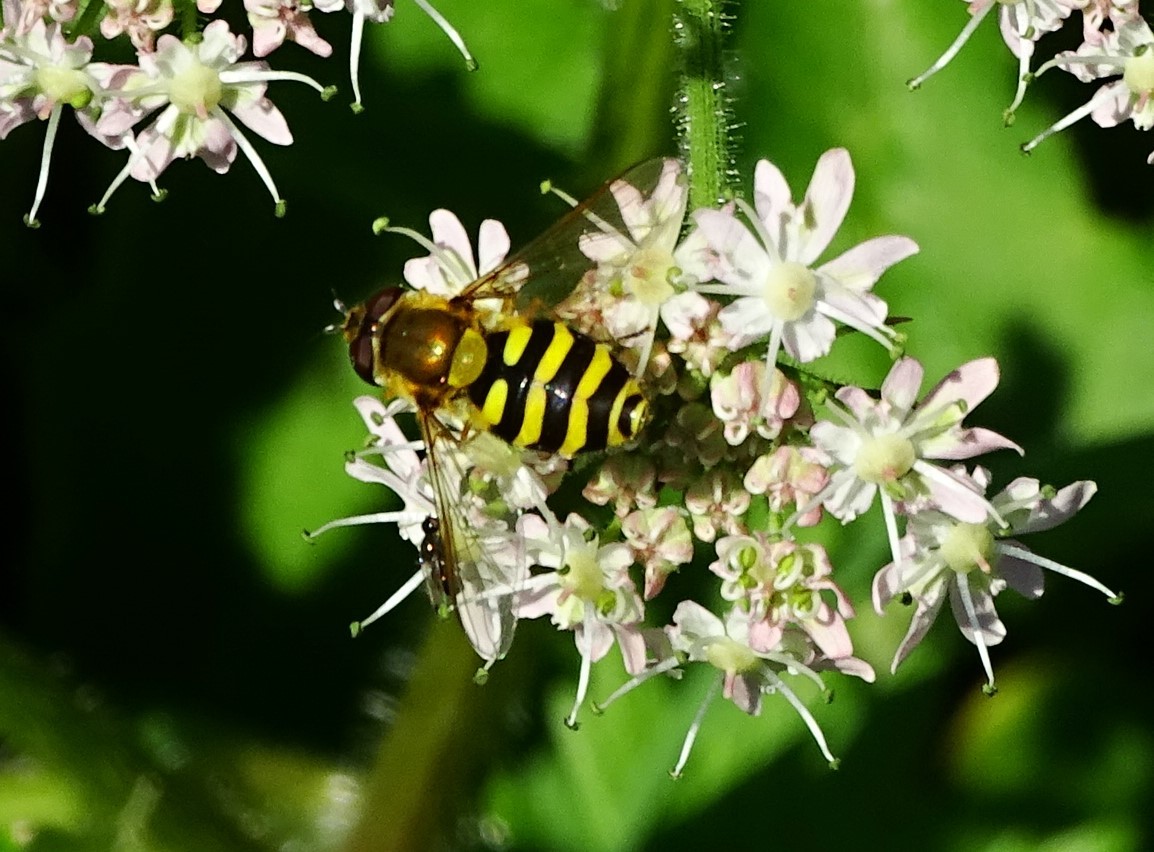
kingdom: Animalia
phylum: Arthropoda
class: Insecta
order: Diptera
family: Syrphidae
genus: Syrphus
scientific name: Syrphus
